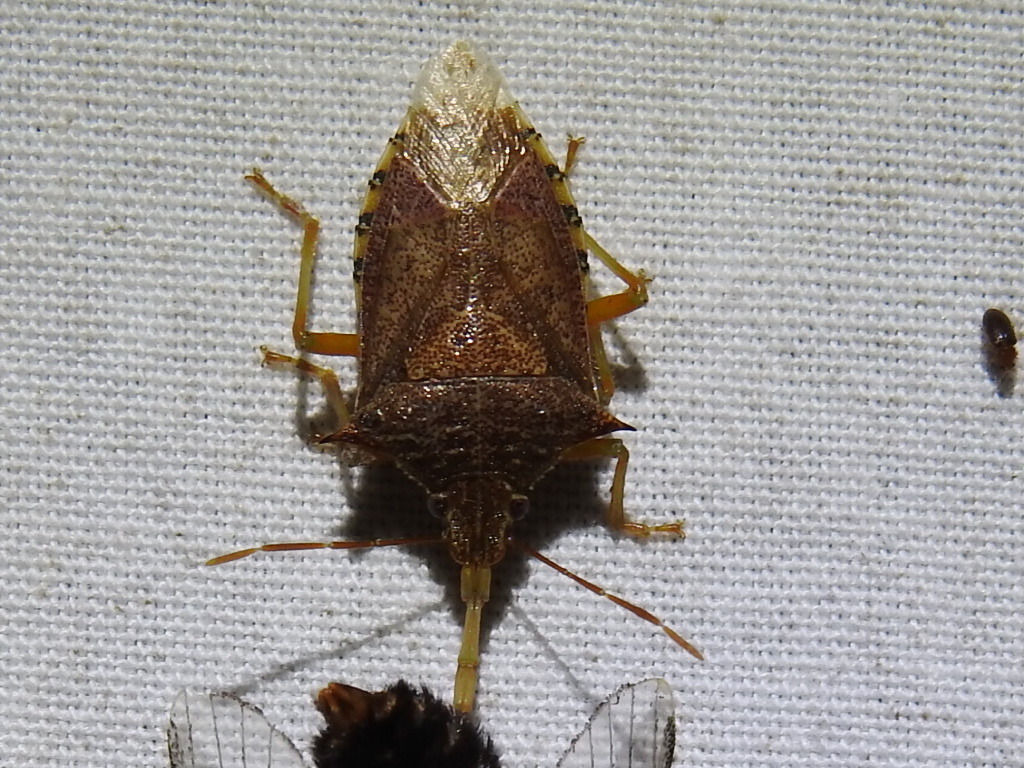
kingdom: Animalia
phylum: Arthropoda
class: Insecta
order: Hemiptera
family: Pentatomidae
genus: Podisus
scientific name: Podisus maculiventris
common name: Spined soldier bug
